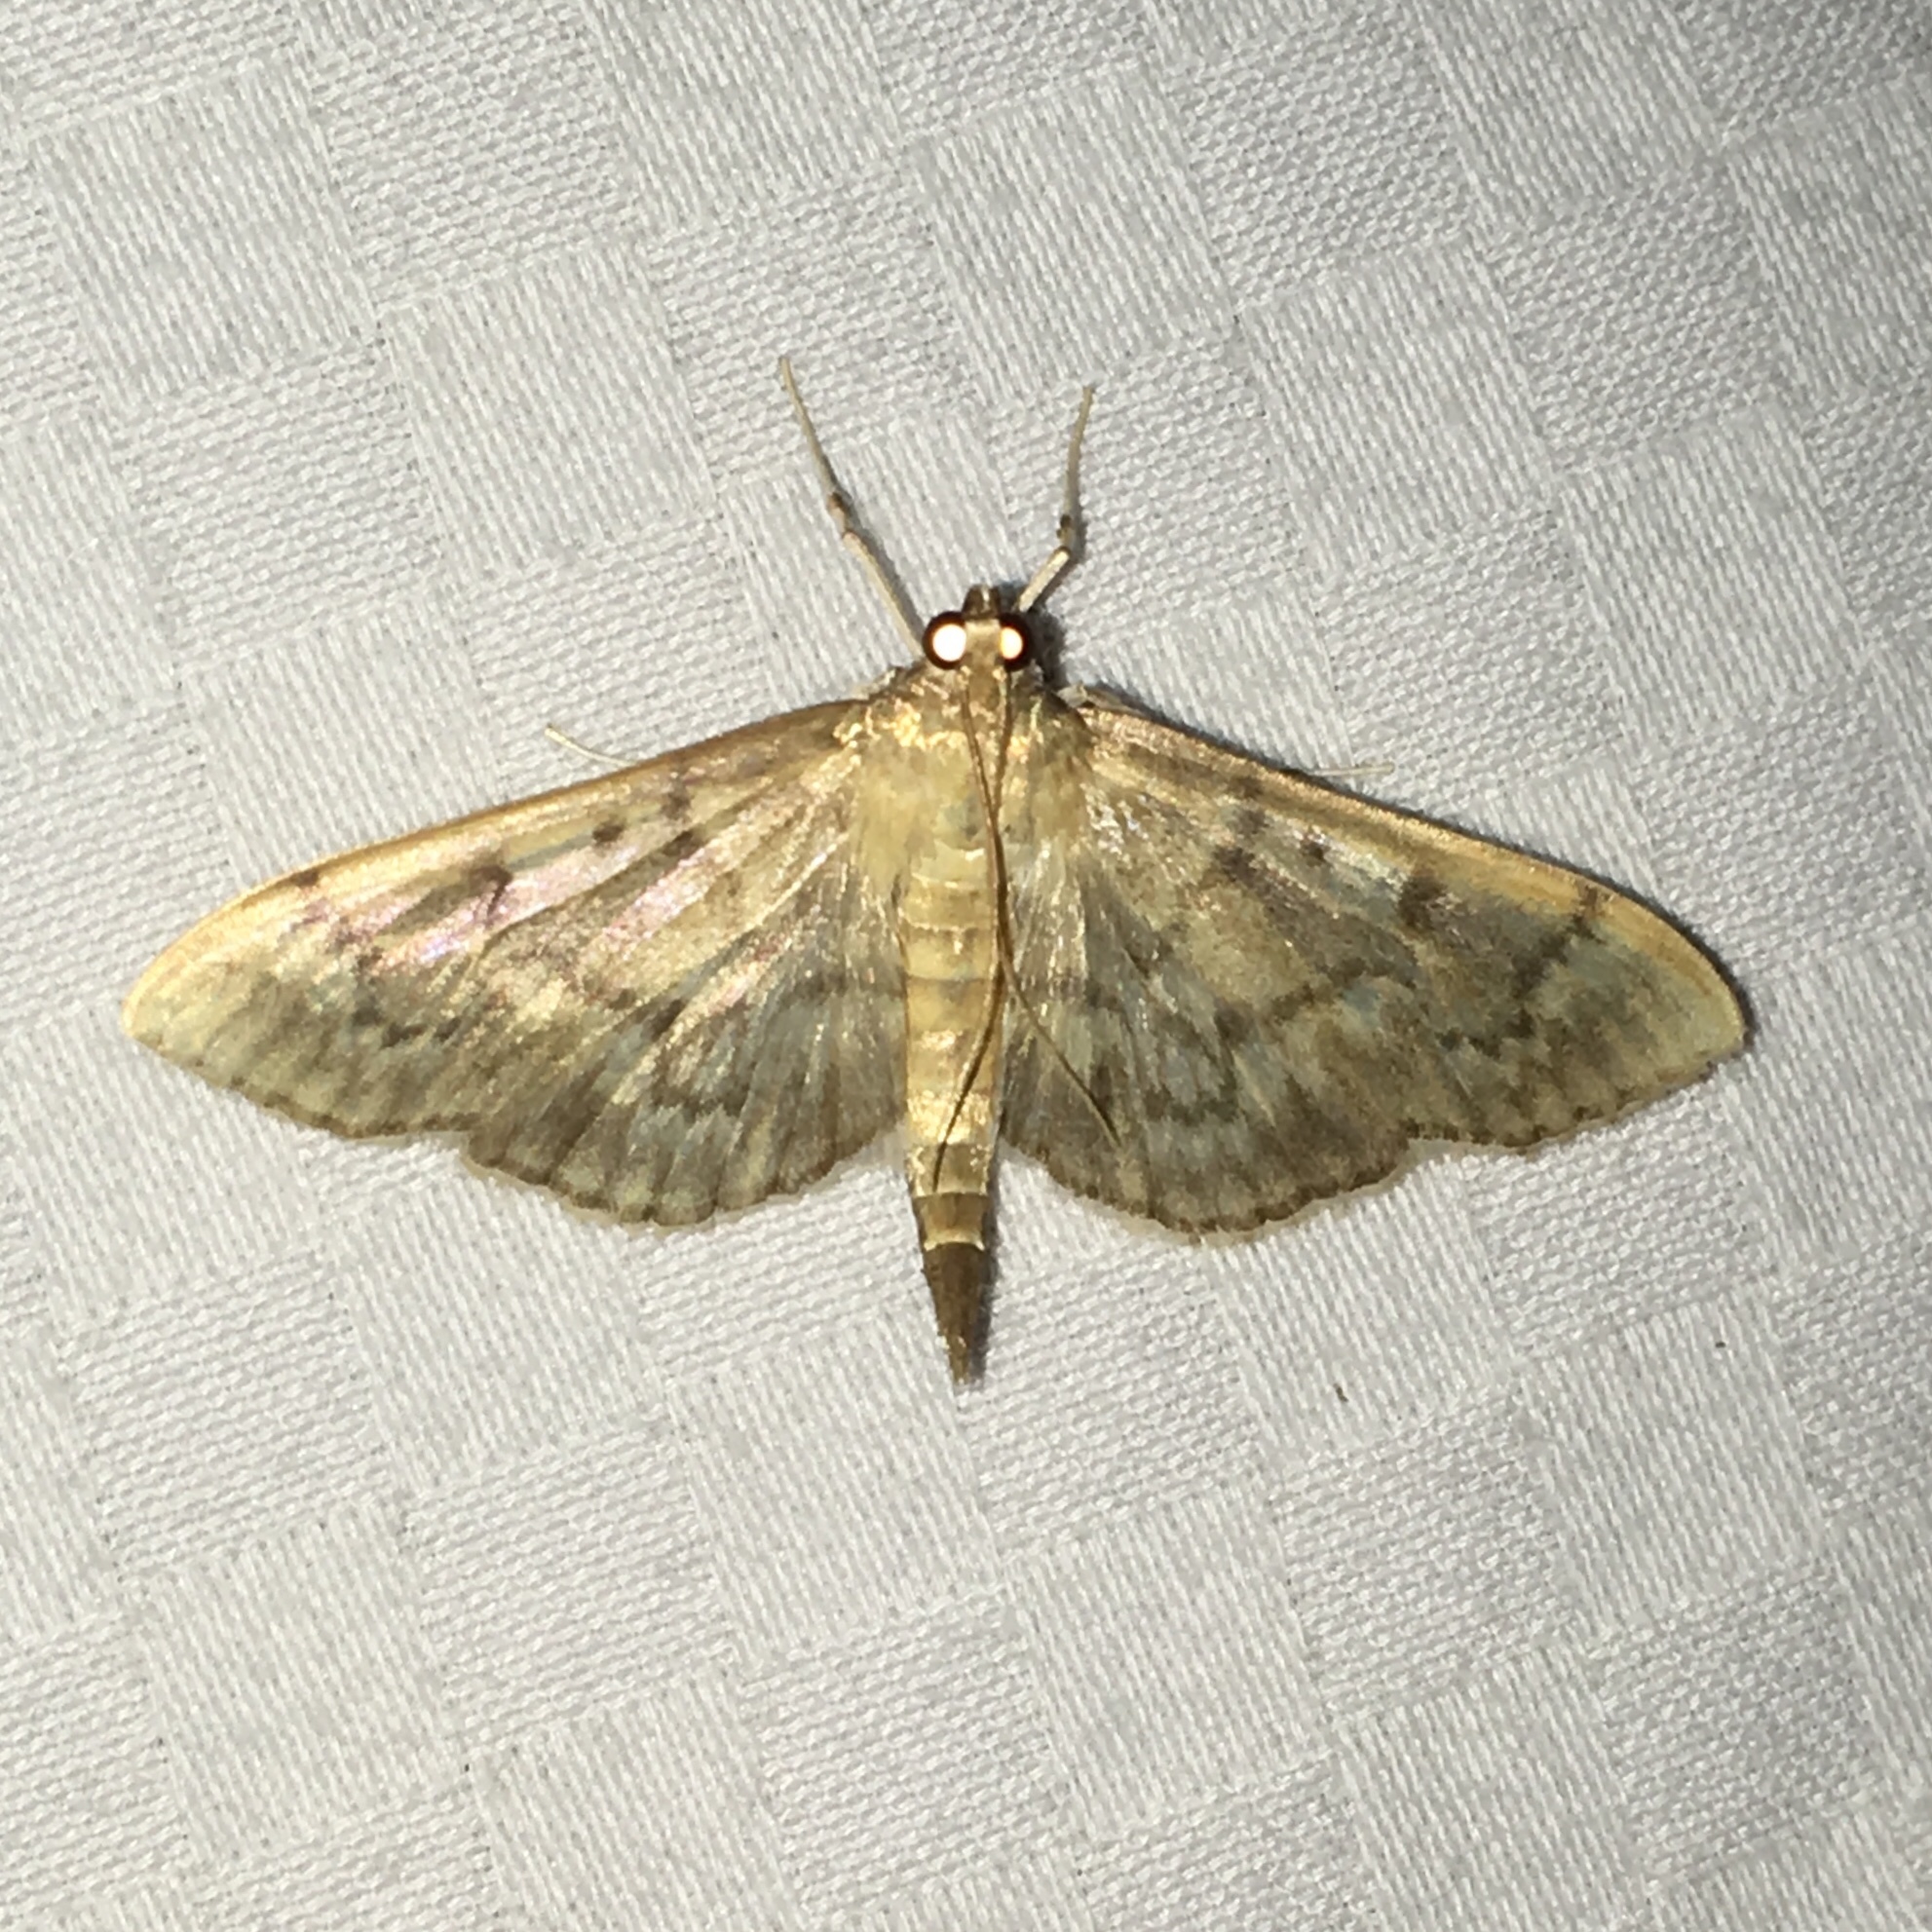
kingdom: Animalia
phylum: Arthropoda
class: Insecta
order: Lepidoptera
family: Crambidae
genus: Herpetogramma
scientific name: Herpetogramma aeglealis
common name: Serpentine webworm moth
